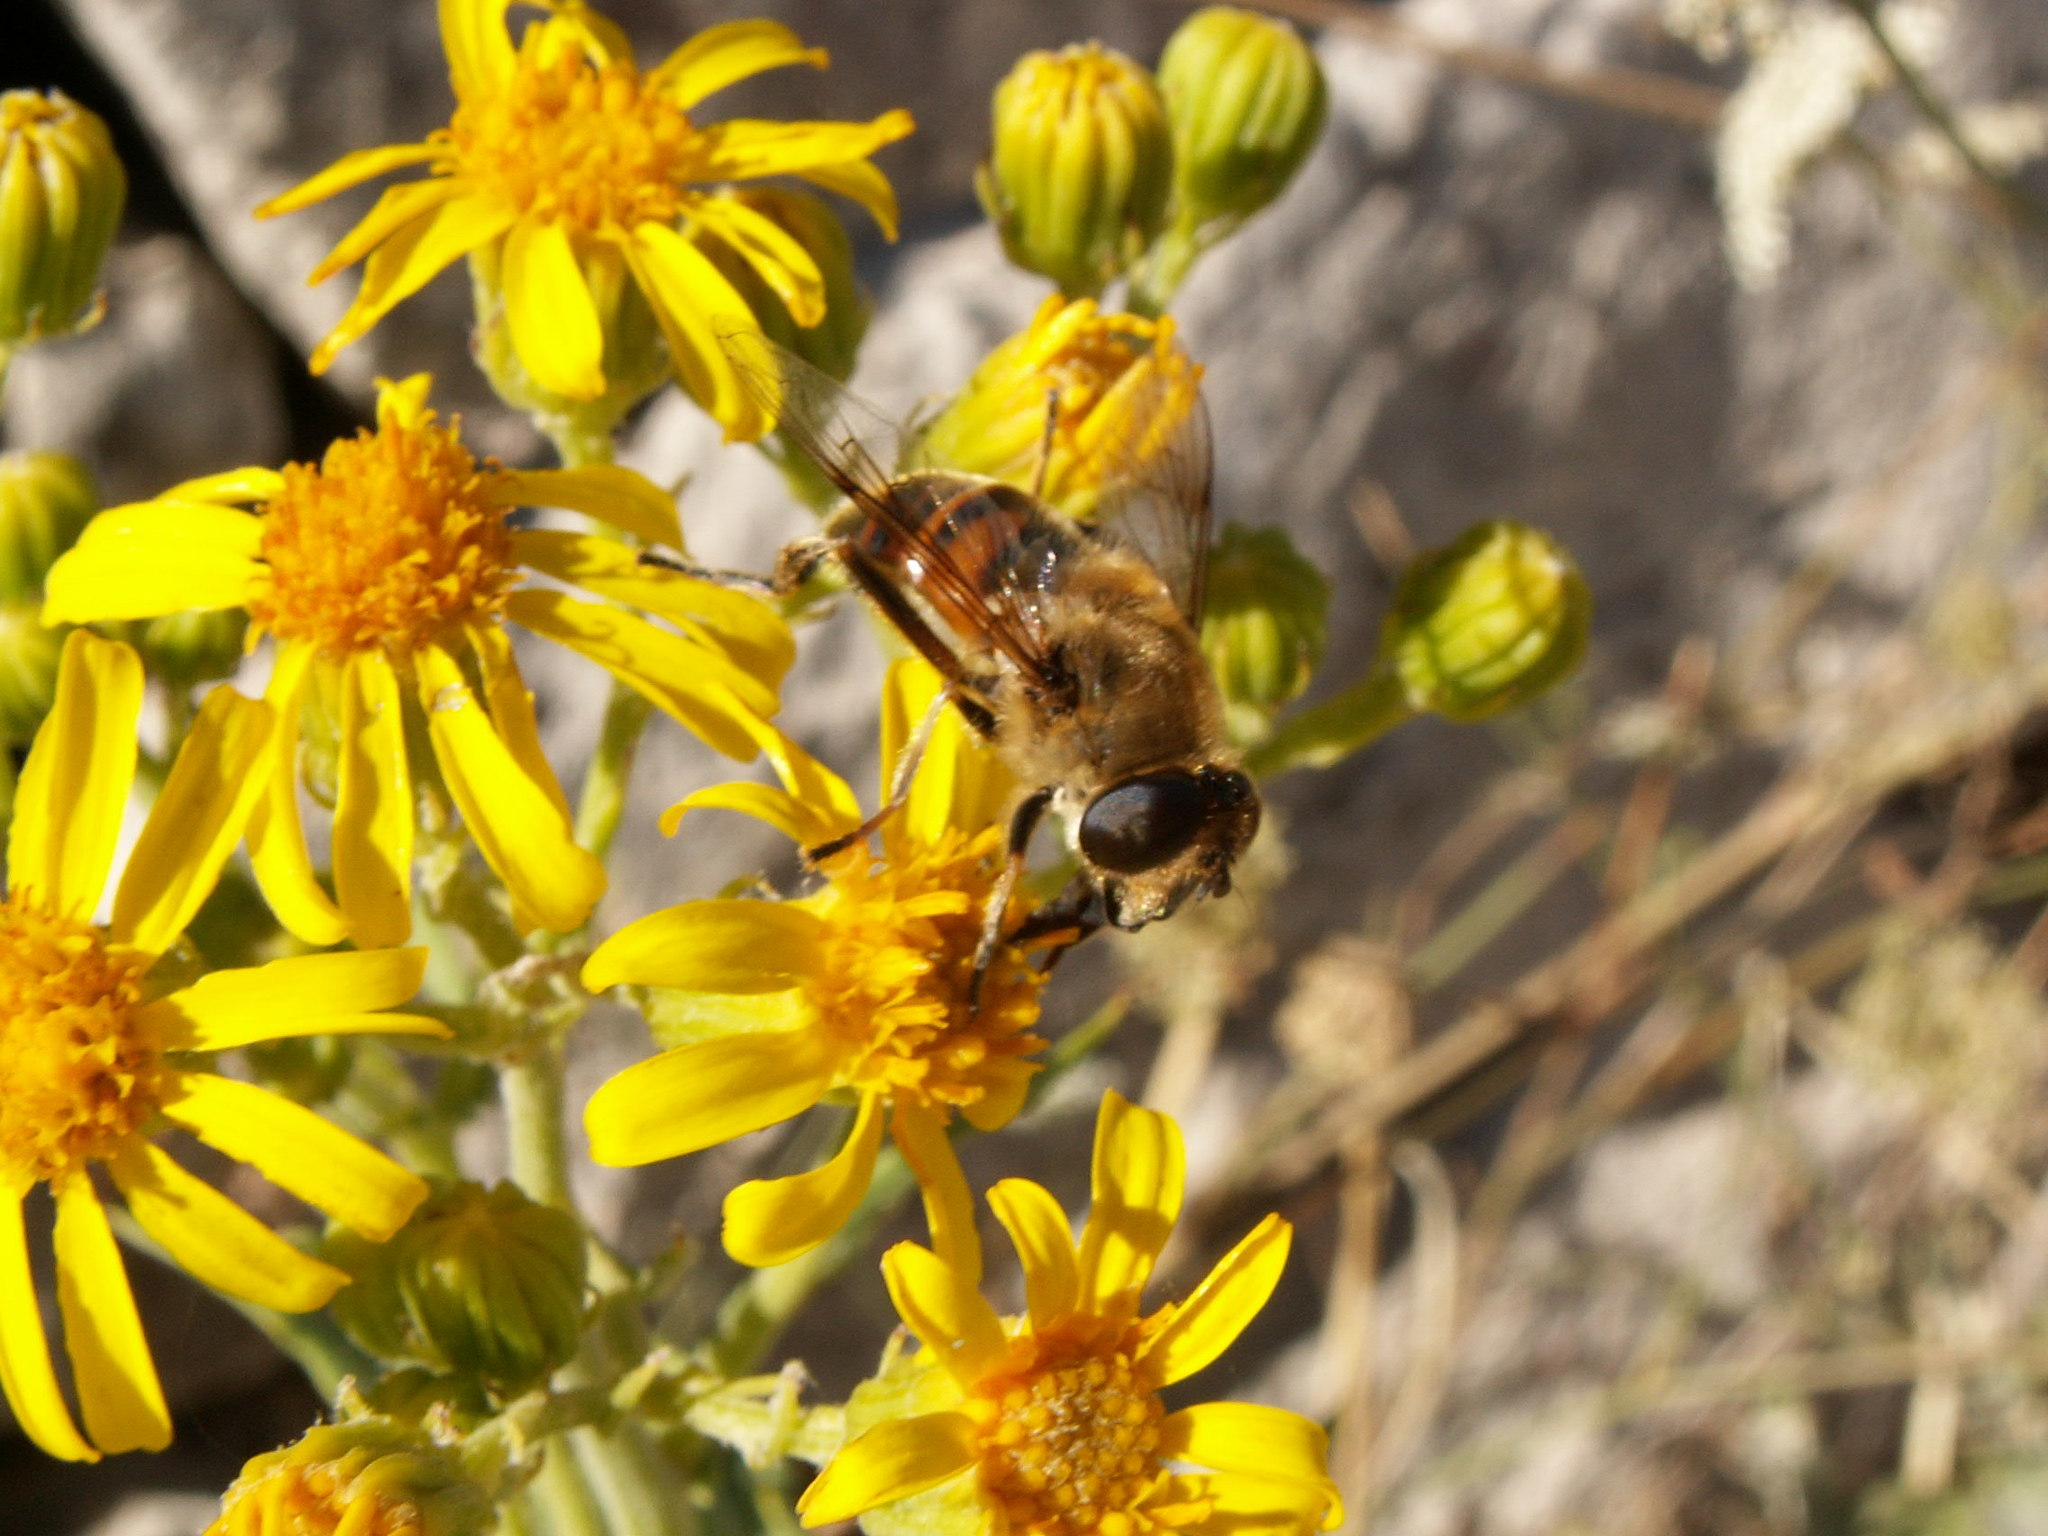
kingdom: Animalia
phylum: Arthropoda
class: Insecta
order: Diptera
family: Syrphidae
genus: Eristalis
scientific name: Eristalis tenax
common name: Drone fly
